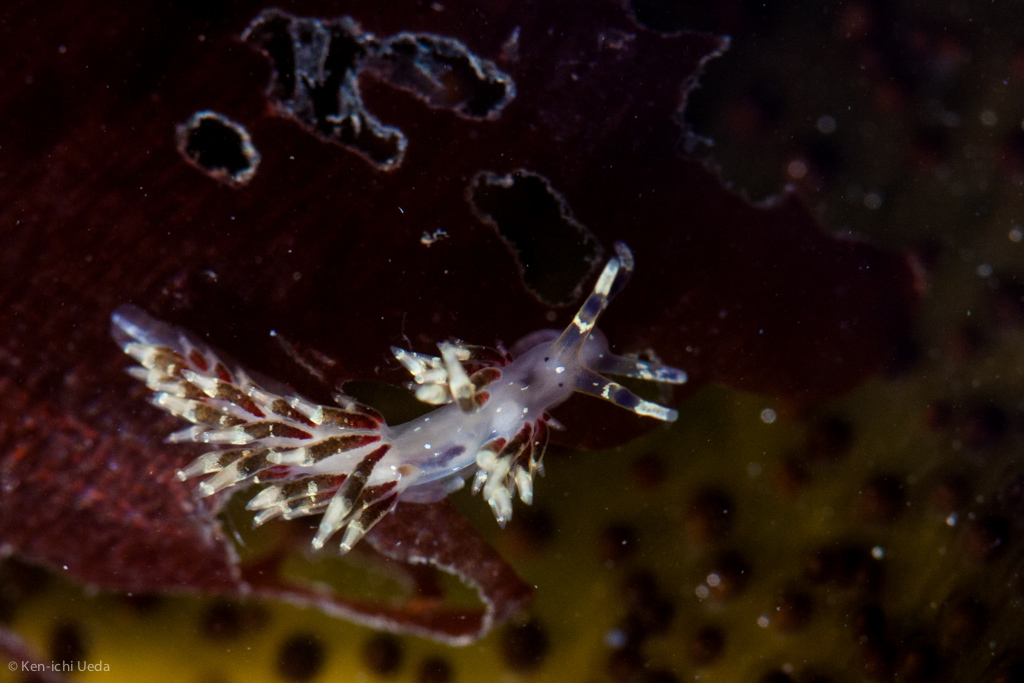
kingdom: Animalia
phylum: Mollusca
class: Gastropoda
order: Nudibranchia
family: Abronicidae
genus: Abronica
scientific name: Abronica abronia
